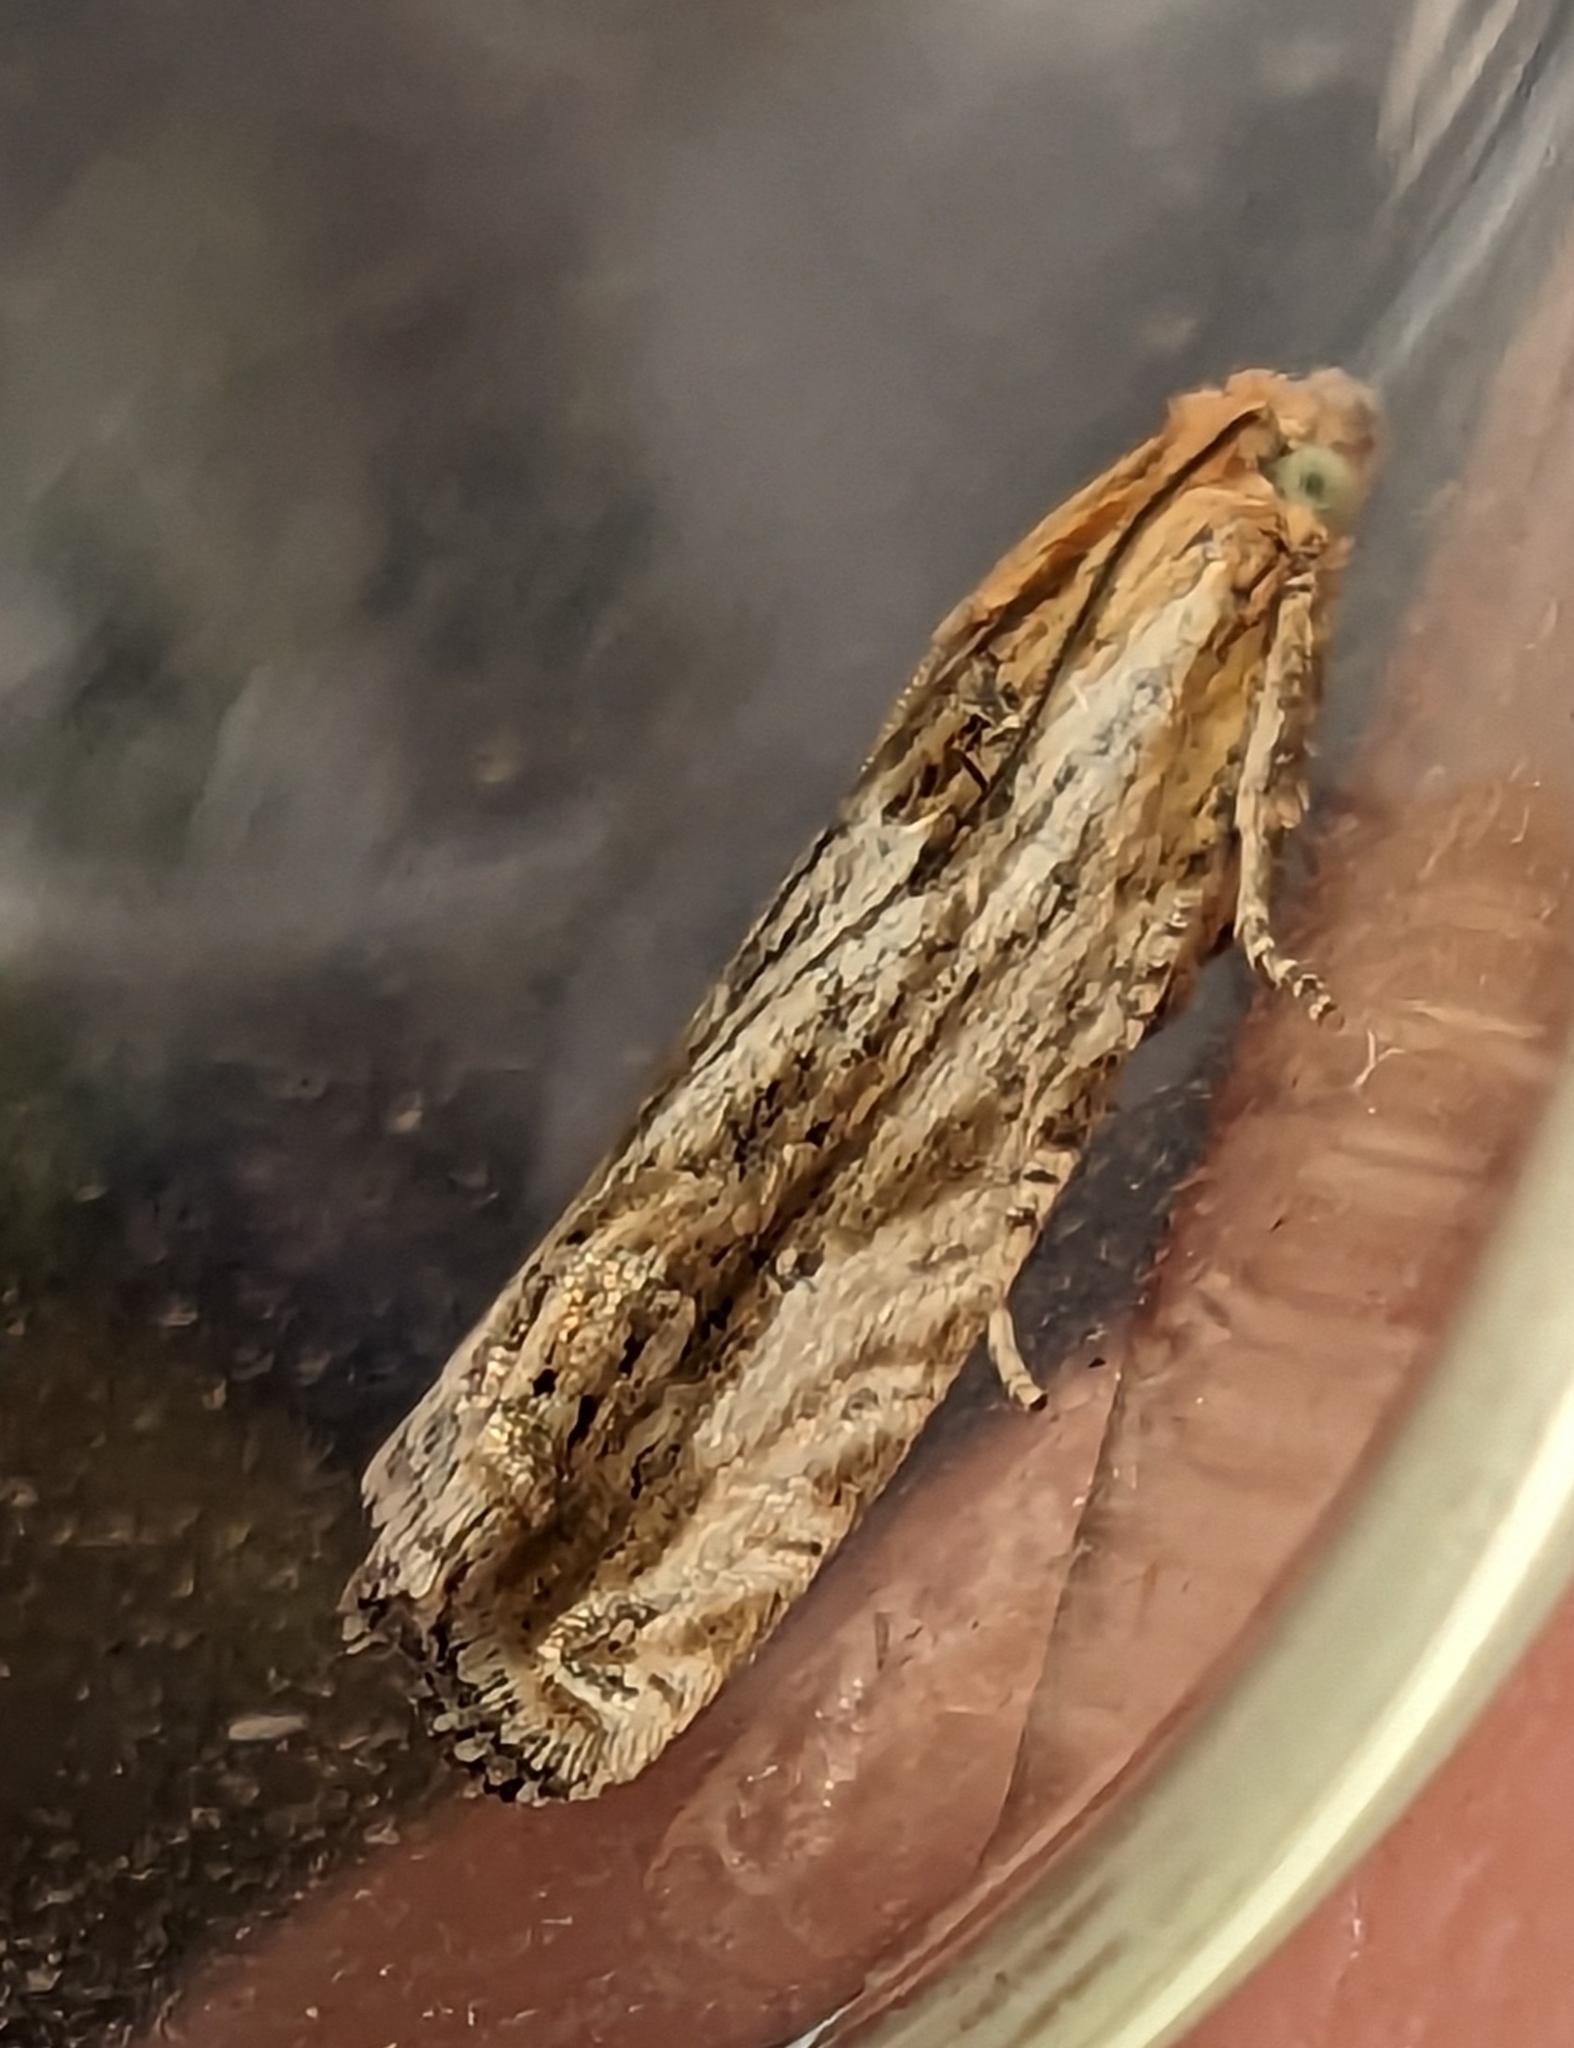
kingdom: Animalia
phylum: Arthropoda
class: Insecta
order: Lepidoptera
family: Tortricidae
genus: Eucosma
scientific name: Eucosma cana
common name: Hoary belle
